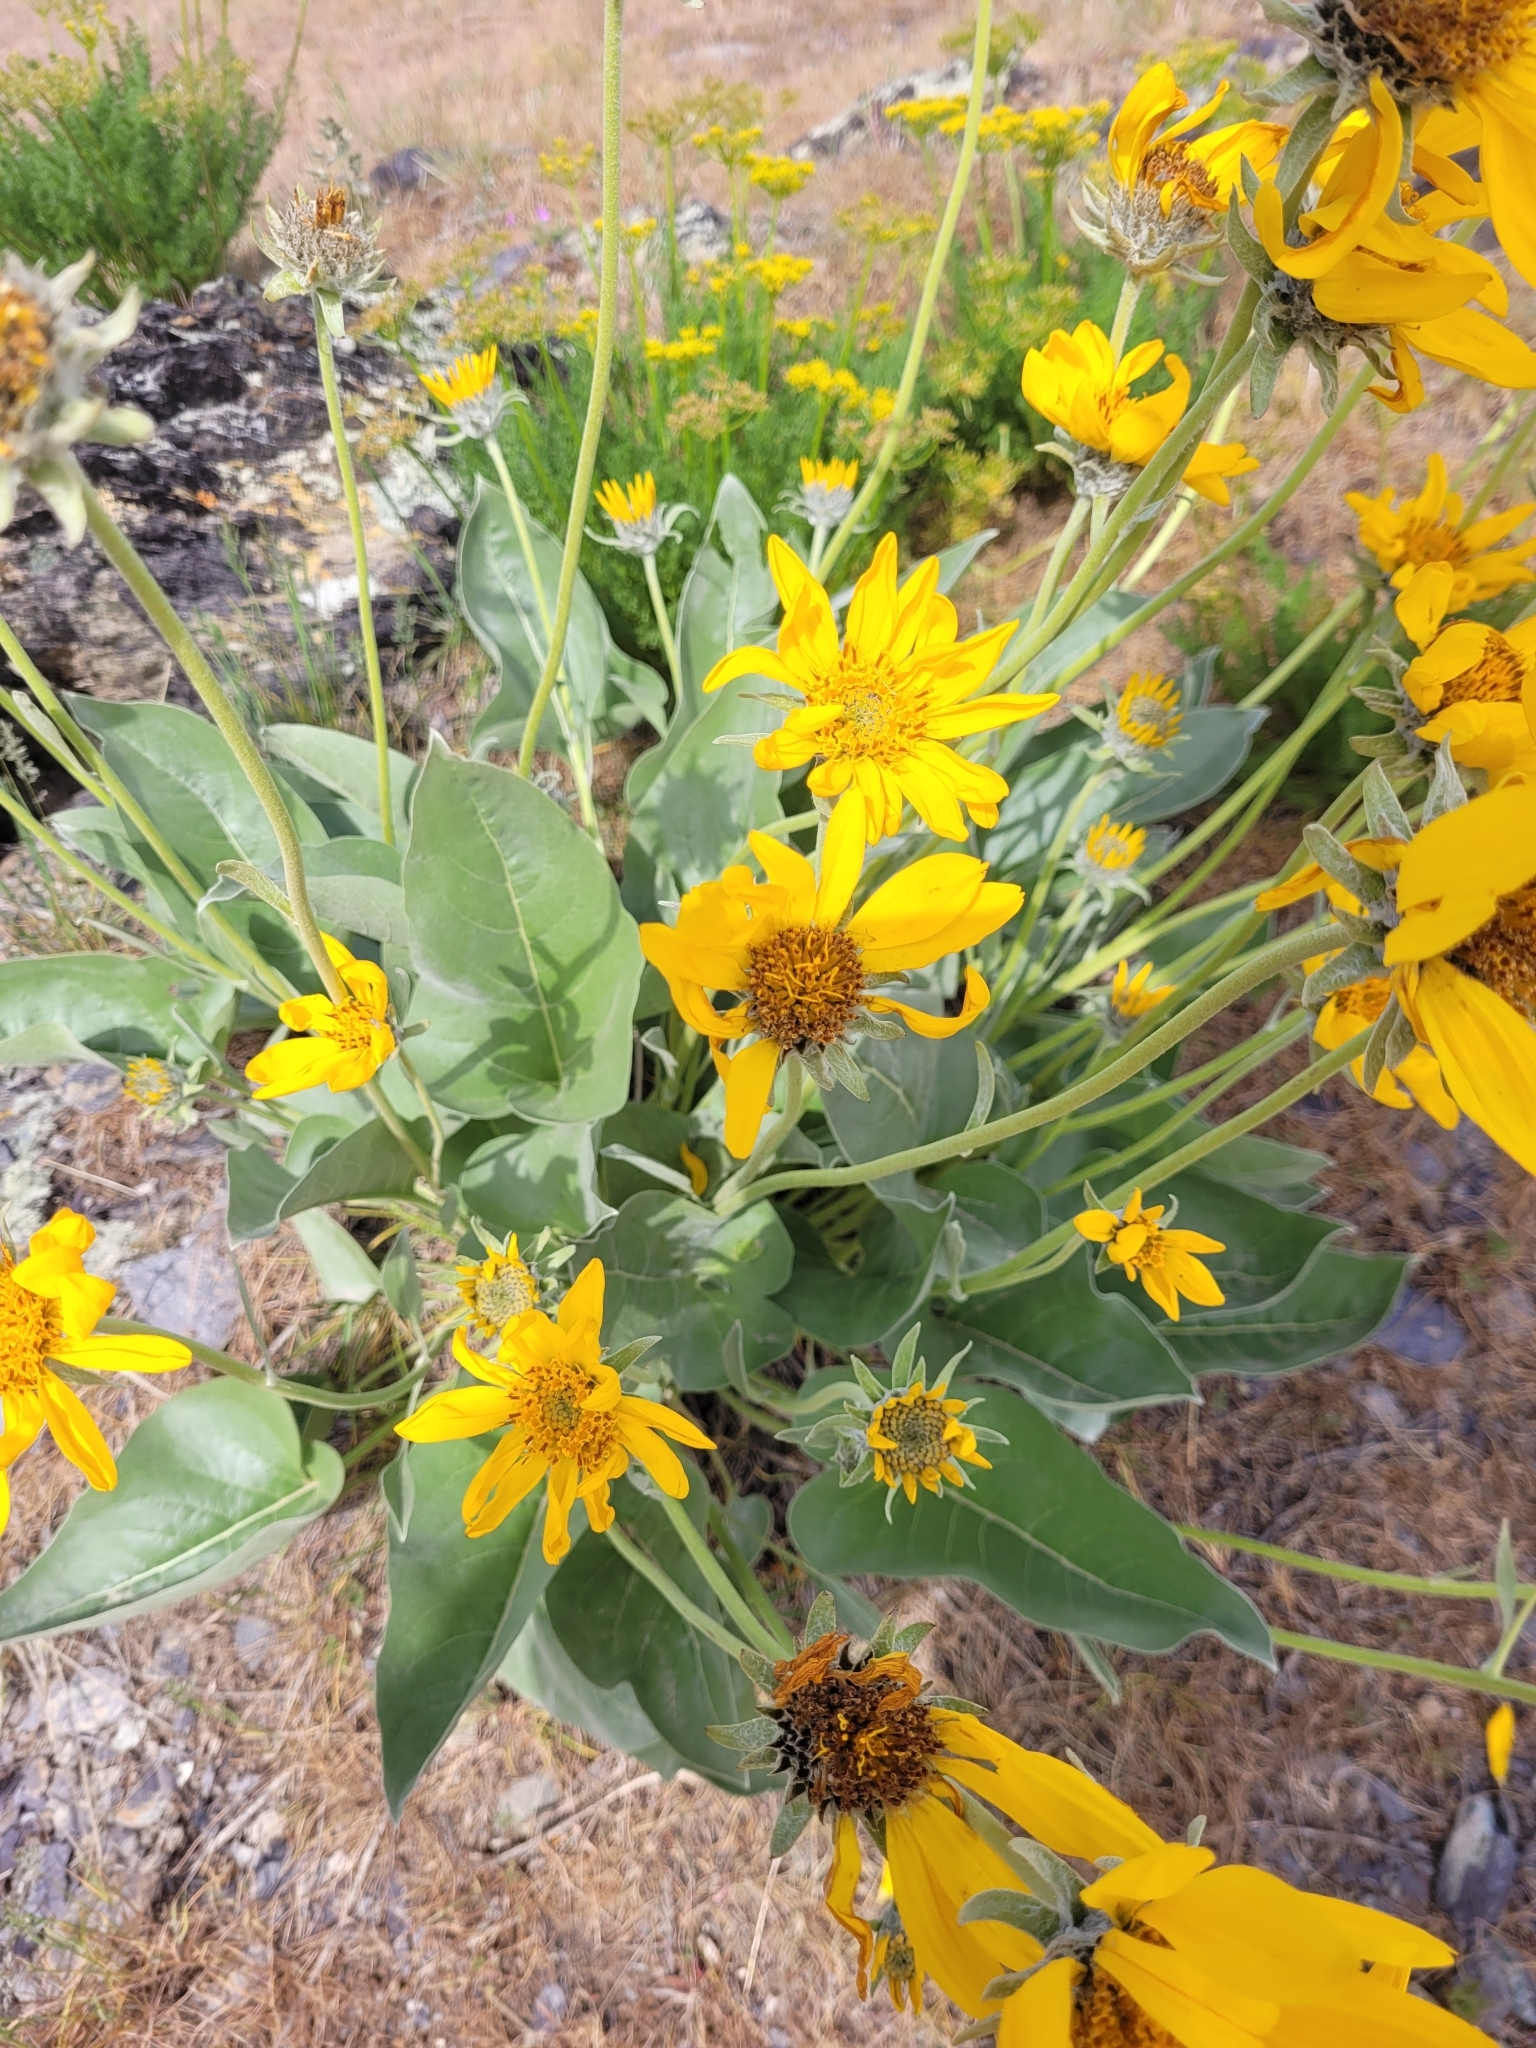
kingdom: Plantae
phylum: Tracheophyta
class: Magnoliopsida
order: Asterales
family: Asteraceae
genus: Wyethia
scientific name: Wyethia sagittata
